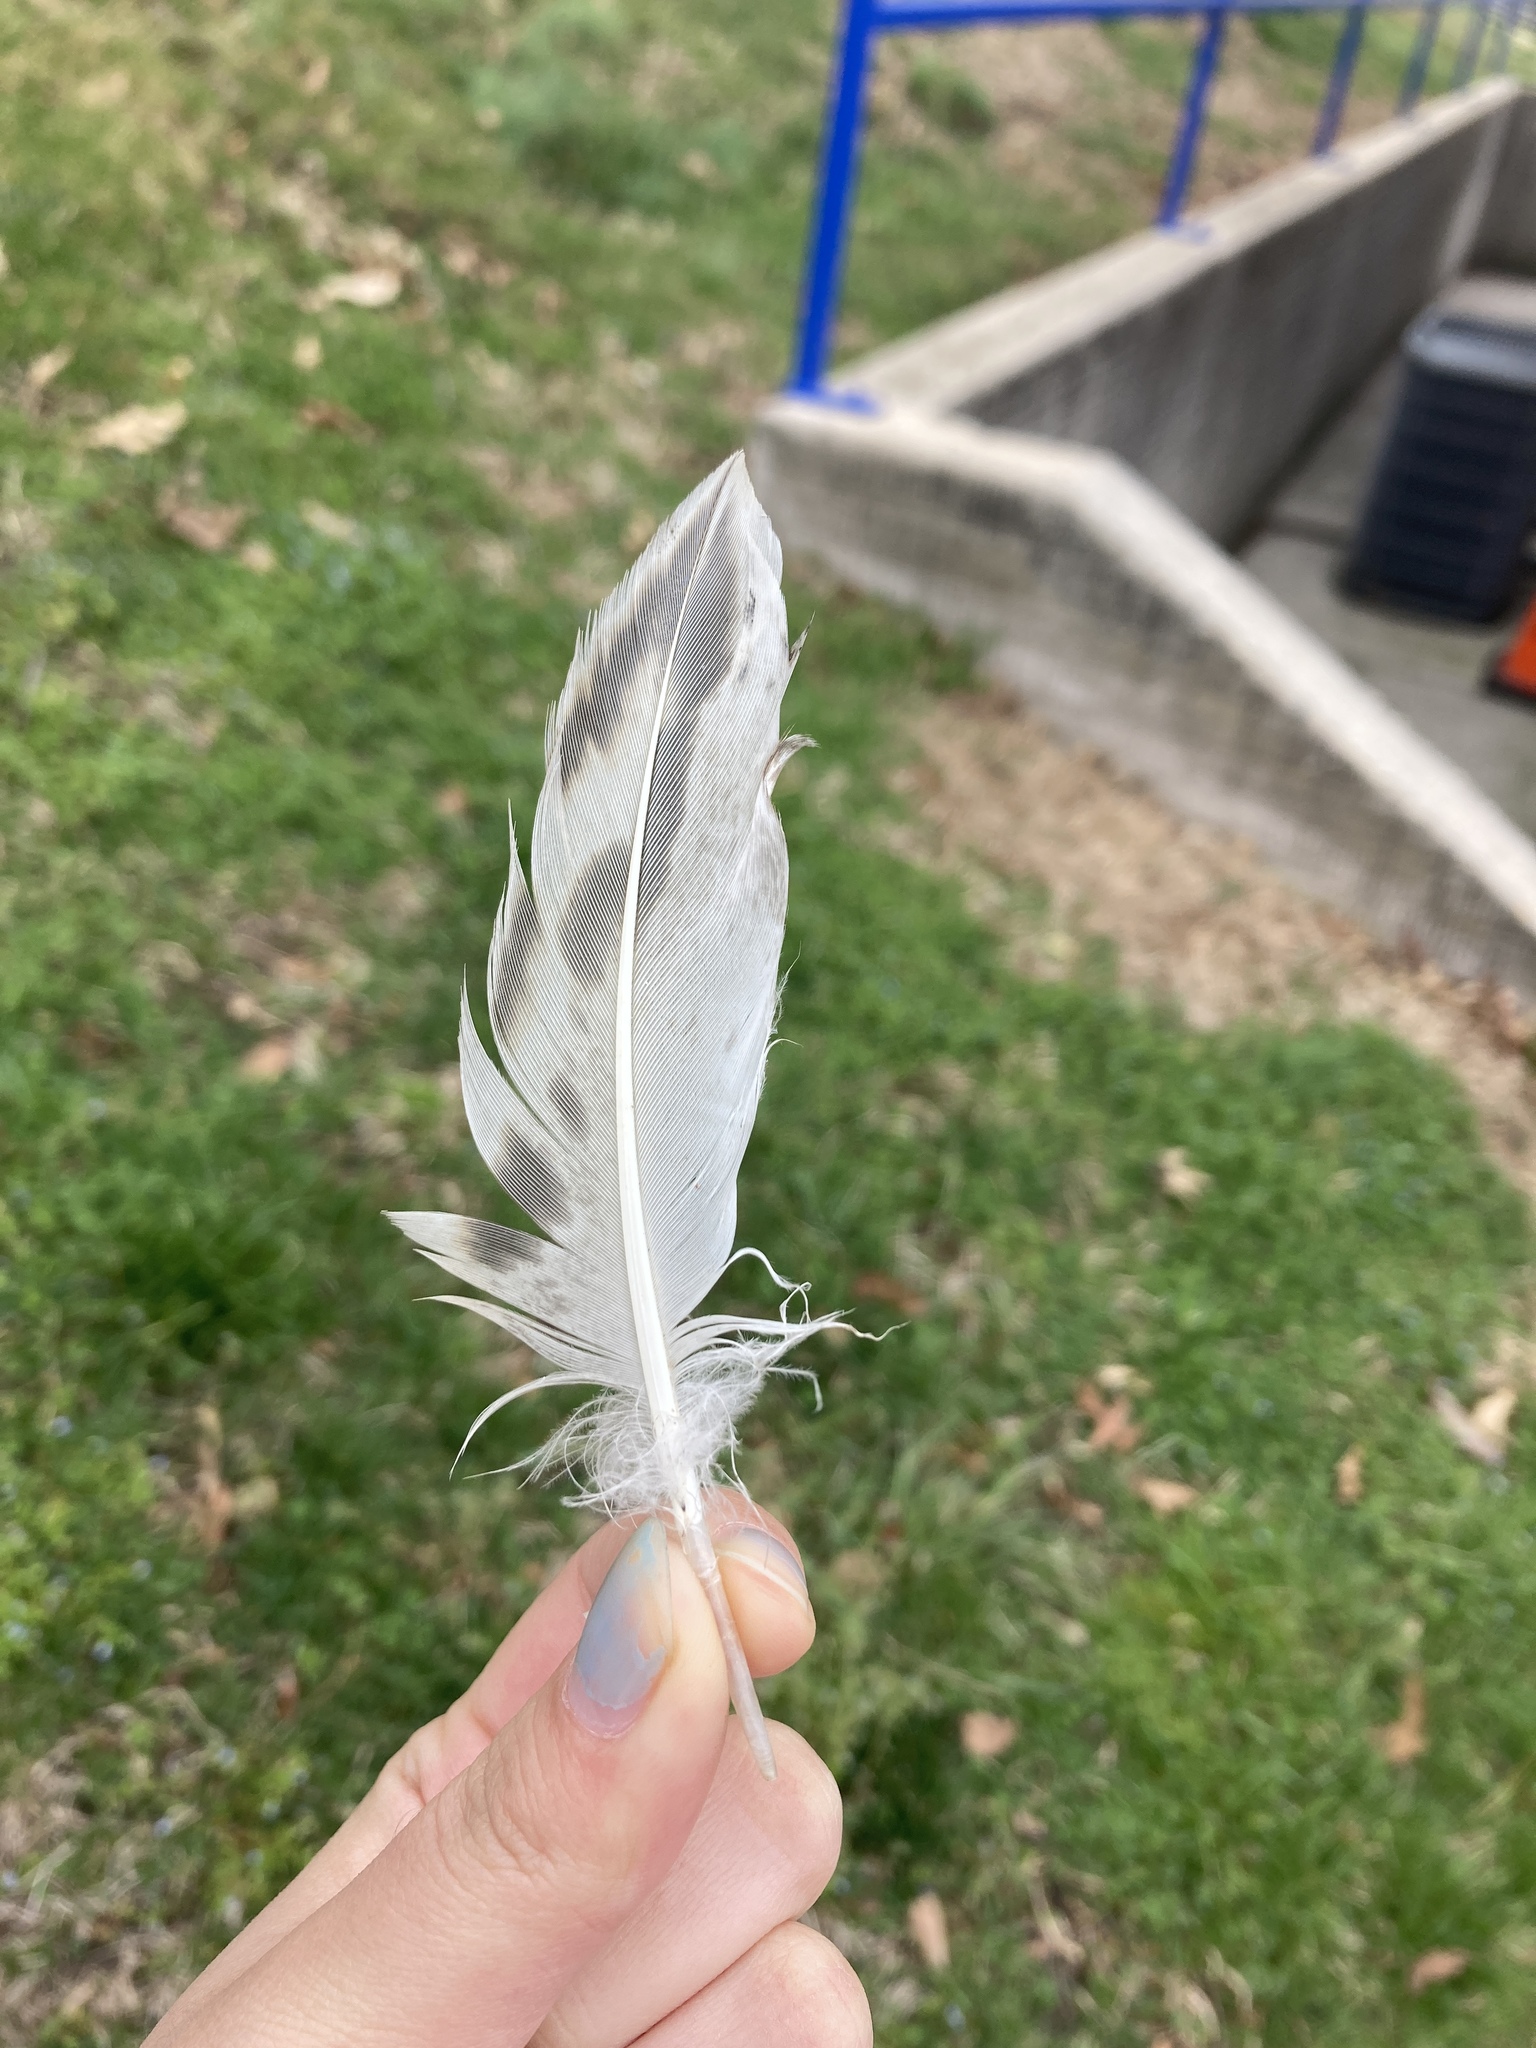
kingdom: Animalia
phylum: Chordata
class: Aves
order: Anseriformes
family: Anatidae
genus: Anas
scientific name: Anas platyrhynchos
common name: Mallard
